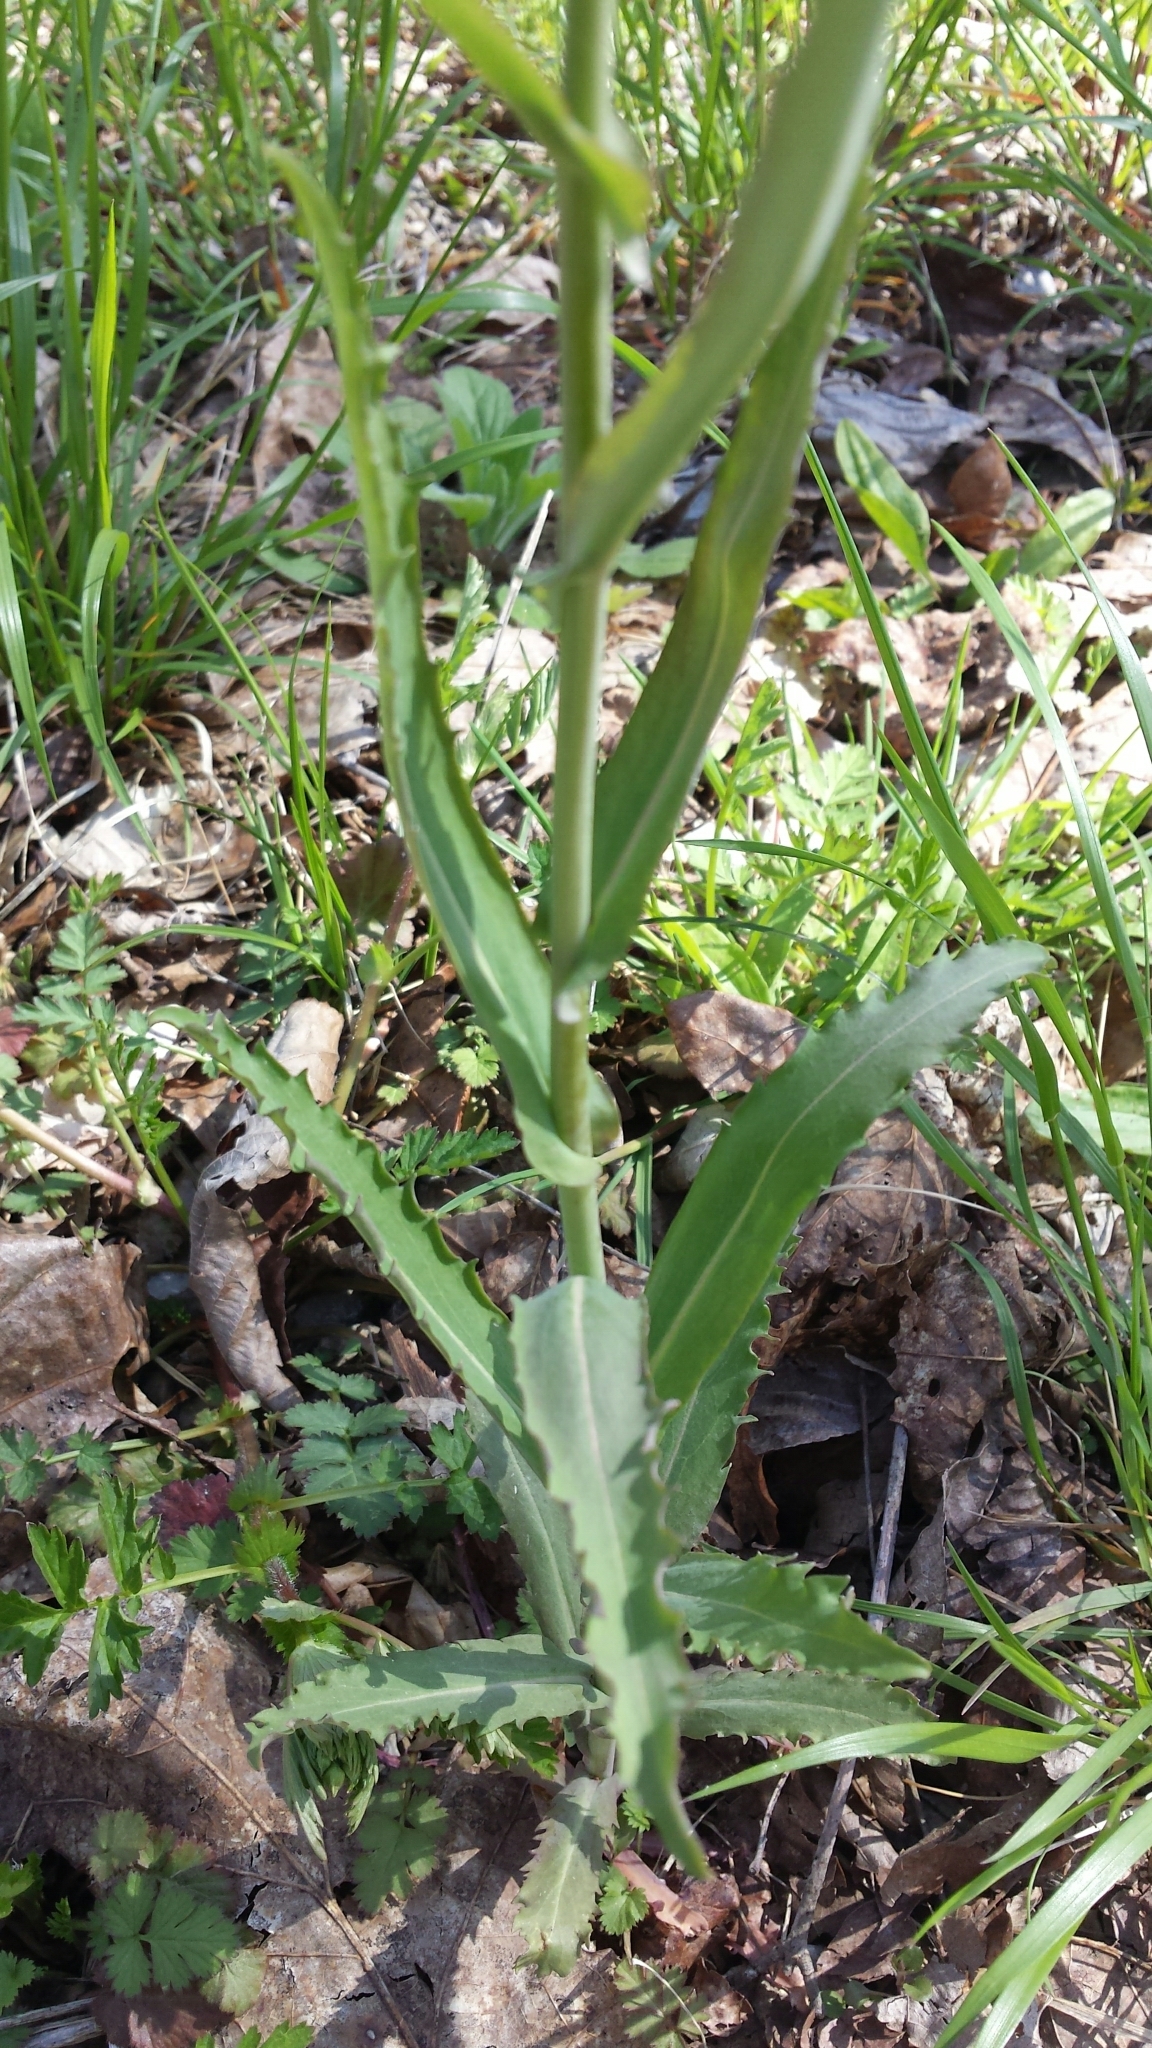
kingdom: Plantae
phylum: Tracheophyta
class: Magnoliopsida
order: Brassicales
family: Brassicaceae
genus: Borodinia
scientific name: Borodinia laevigata
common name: Smooth rockcress
